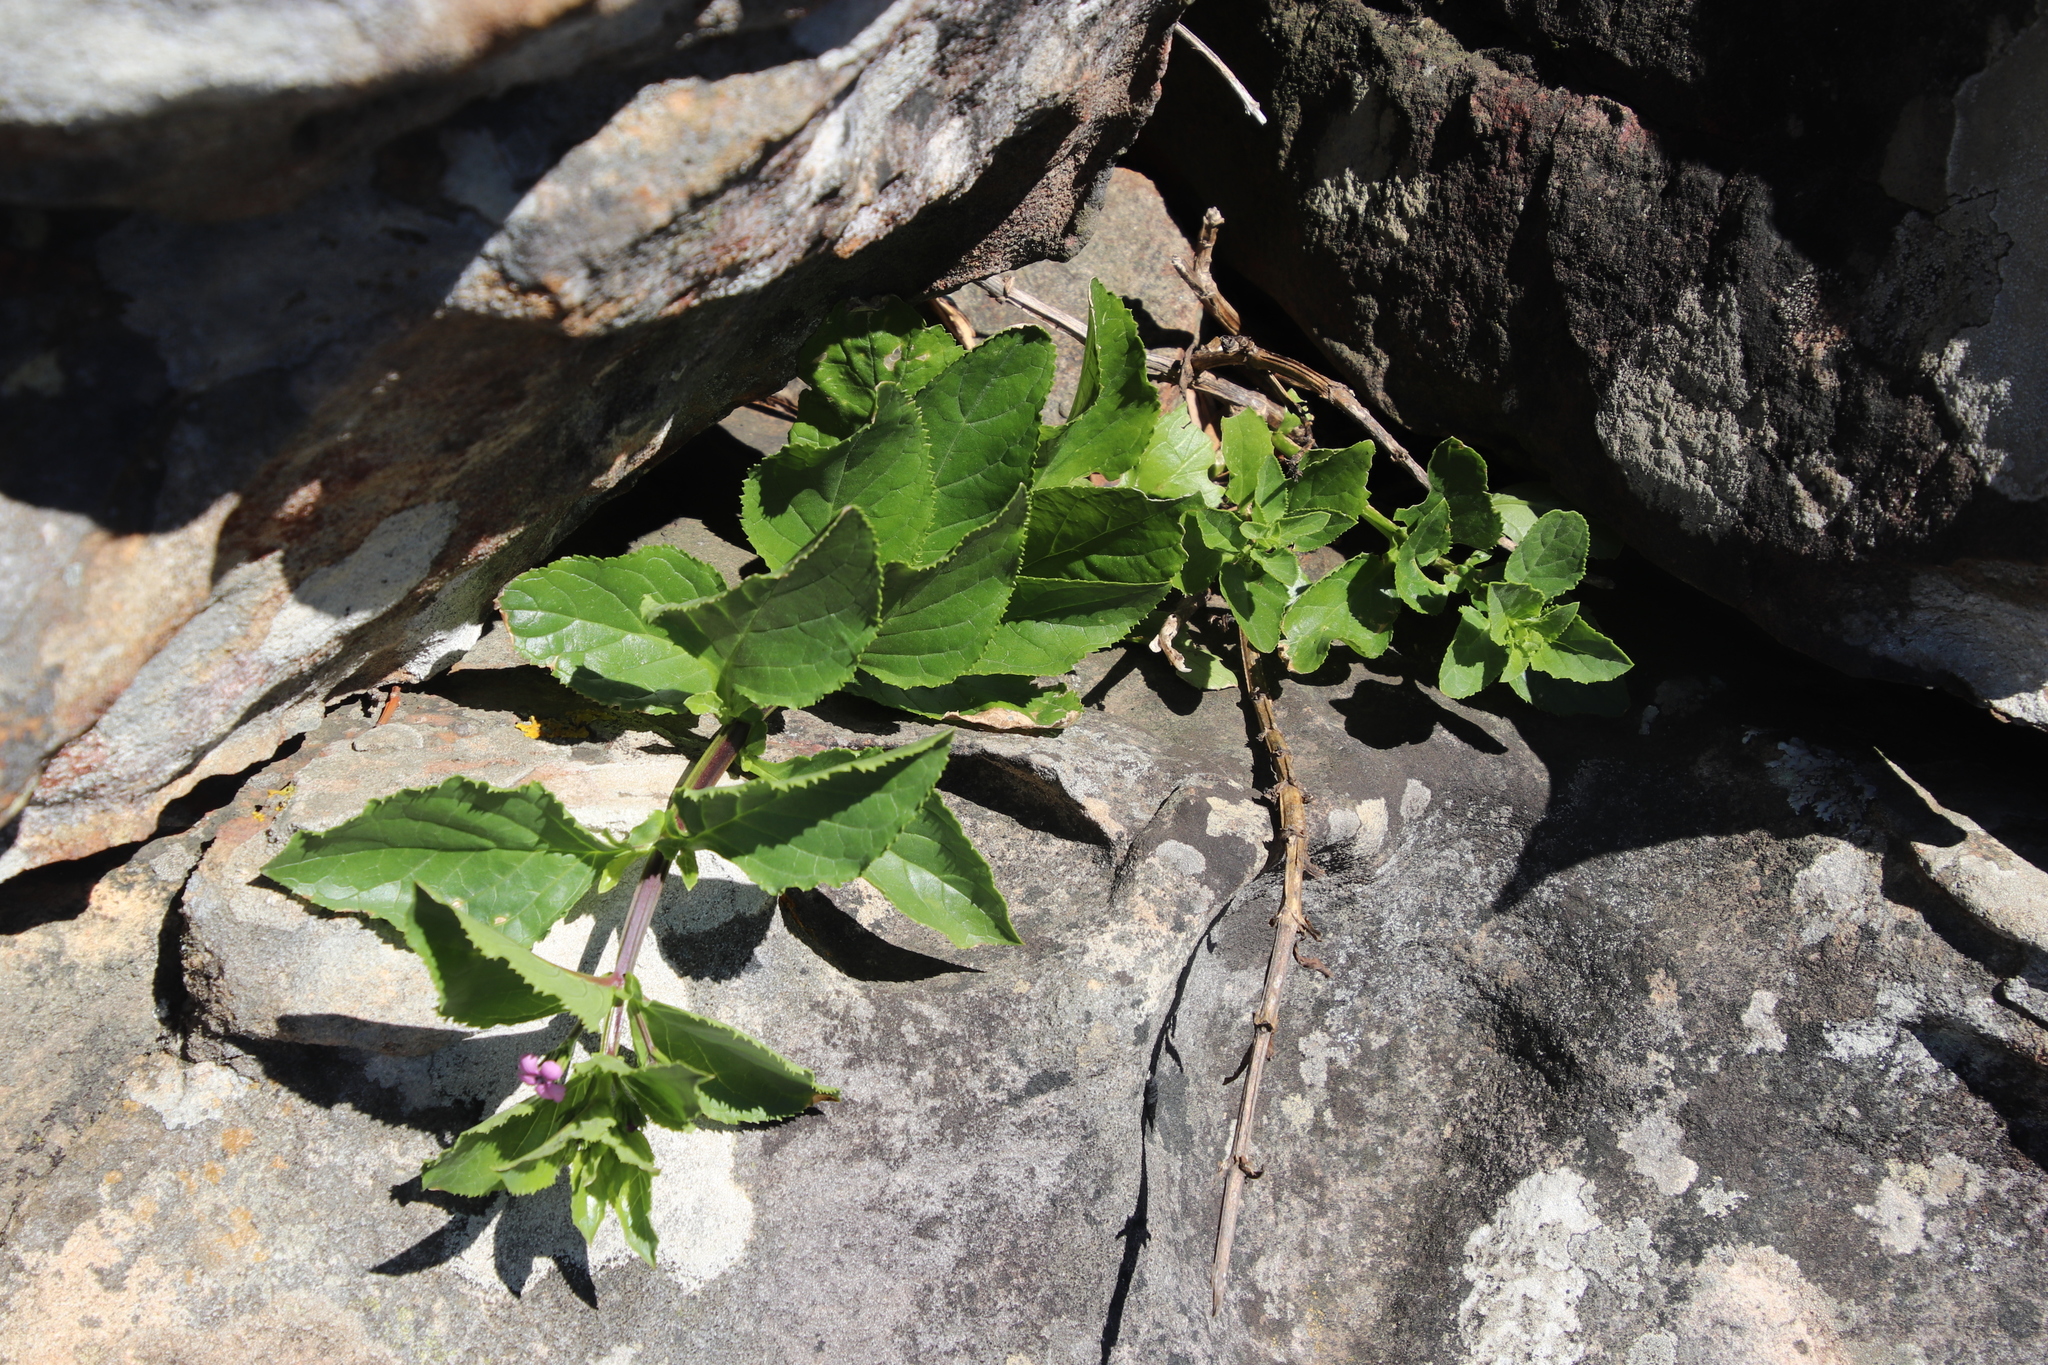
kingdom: Plantae
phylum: Tracheophyta
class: Magnoliopsida
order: Lamiales
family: Scrophulariaceae
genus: Teedia
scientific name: Teedia lucida
